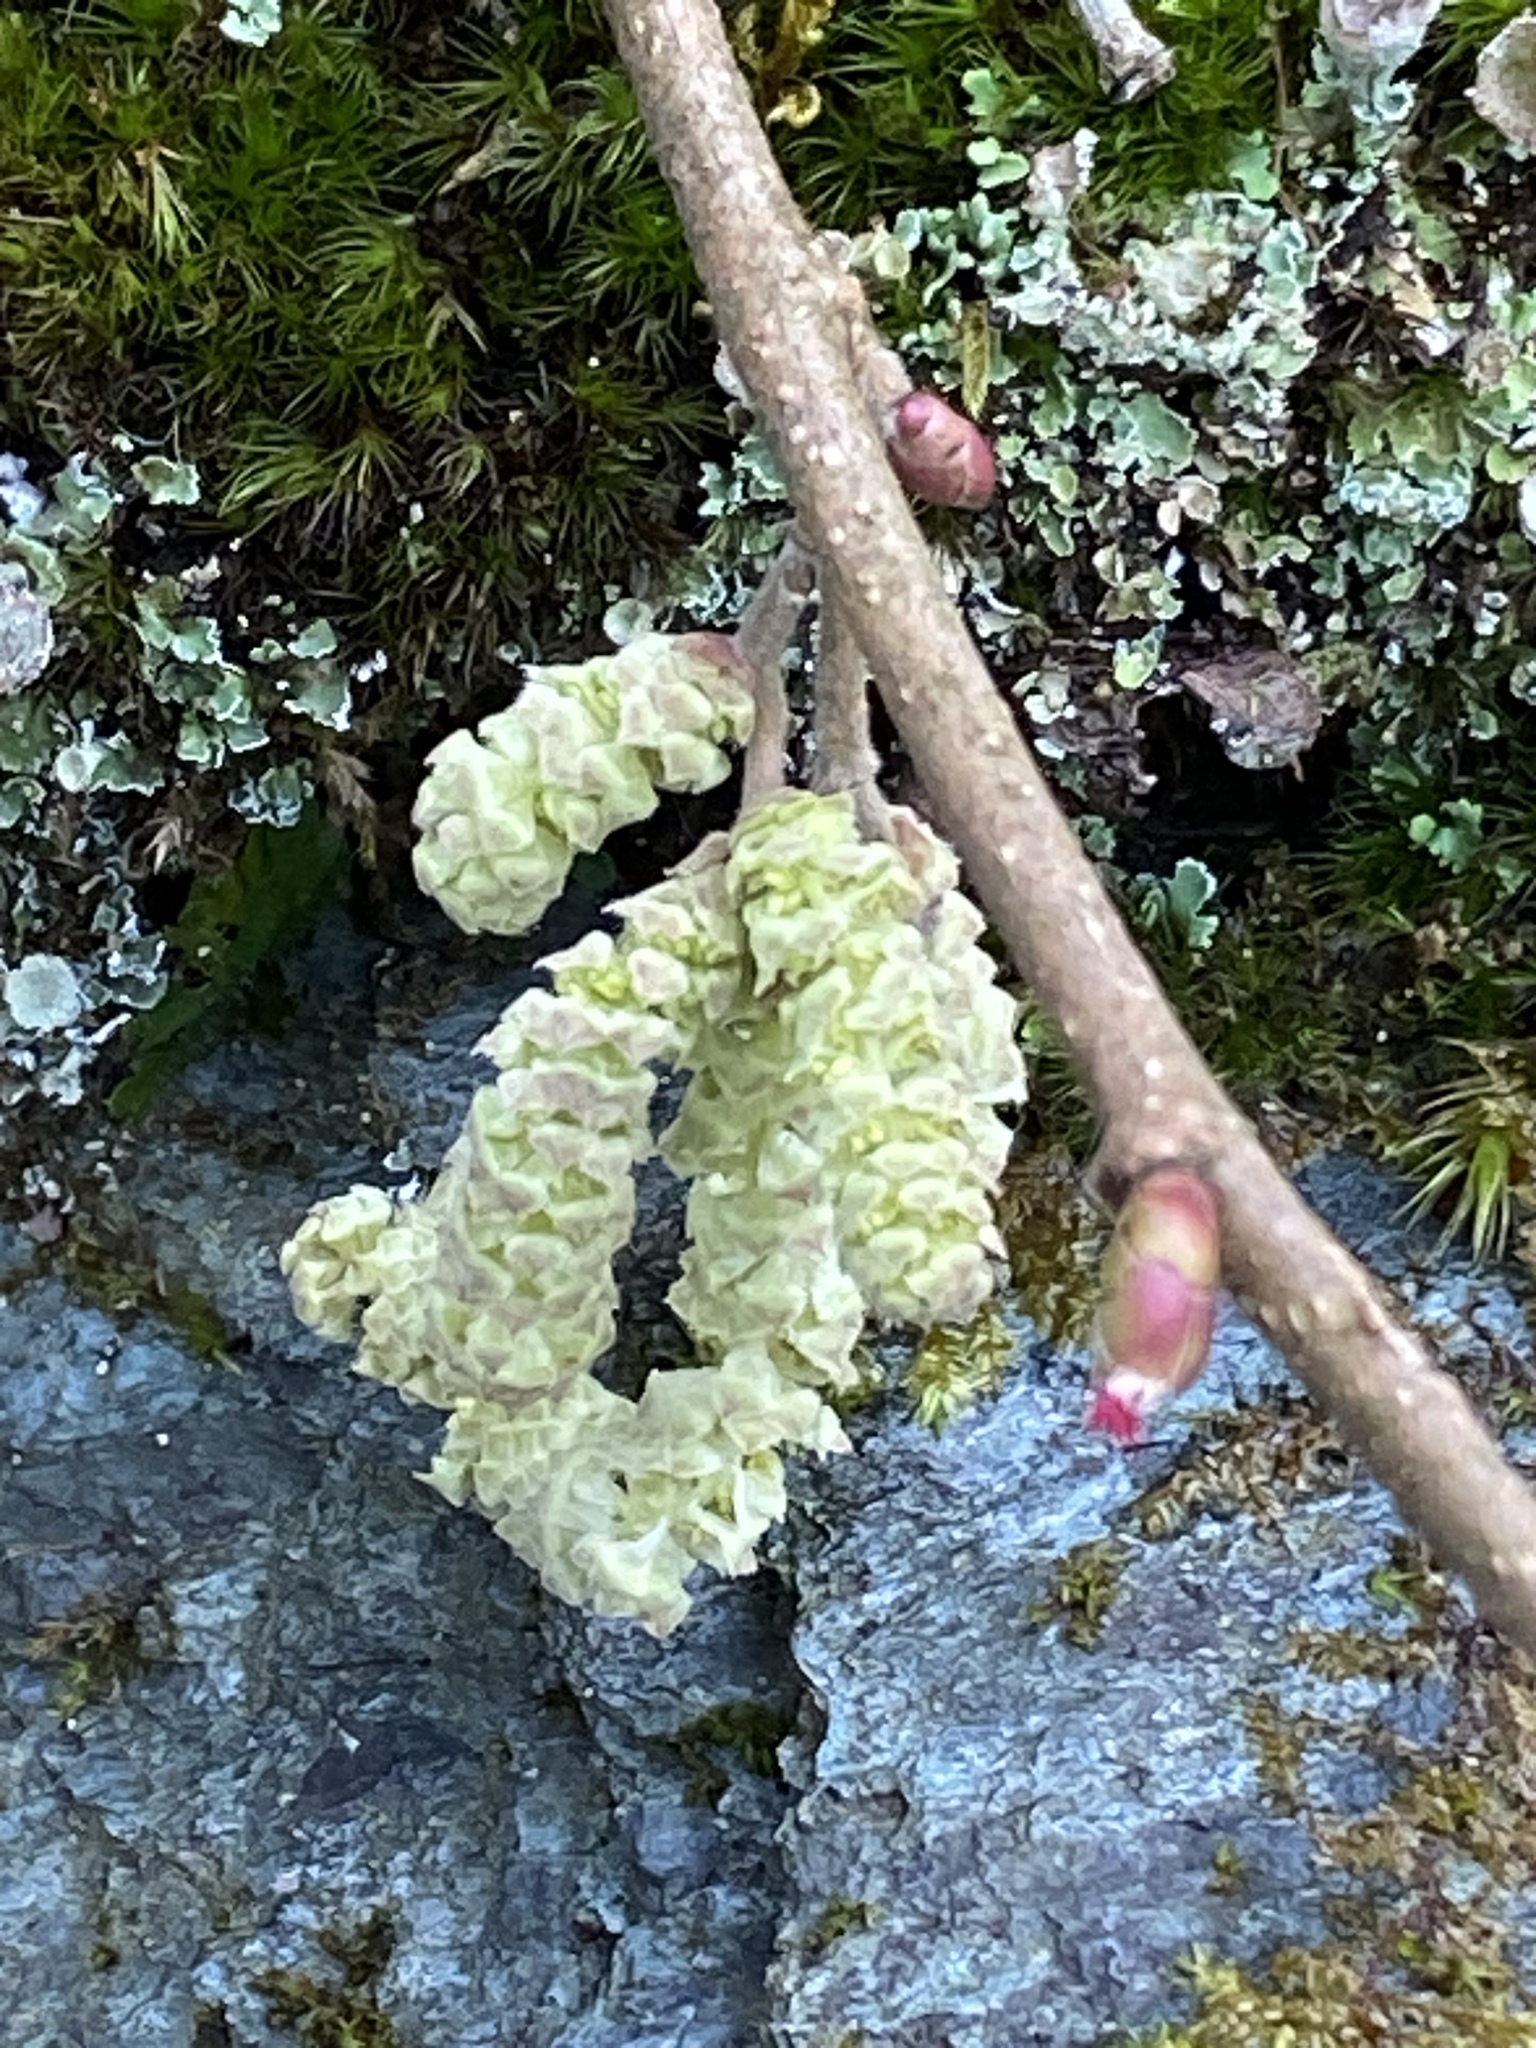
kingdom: Plantae
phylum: Tracheophyta
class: Magnoliopsida
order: Fagales
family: Betulaceae
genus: Corylus
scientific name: Corylus avellana
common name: European hazel
